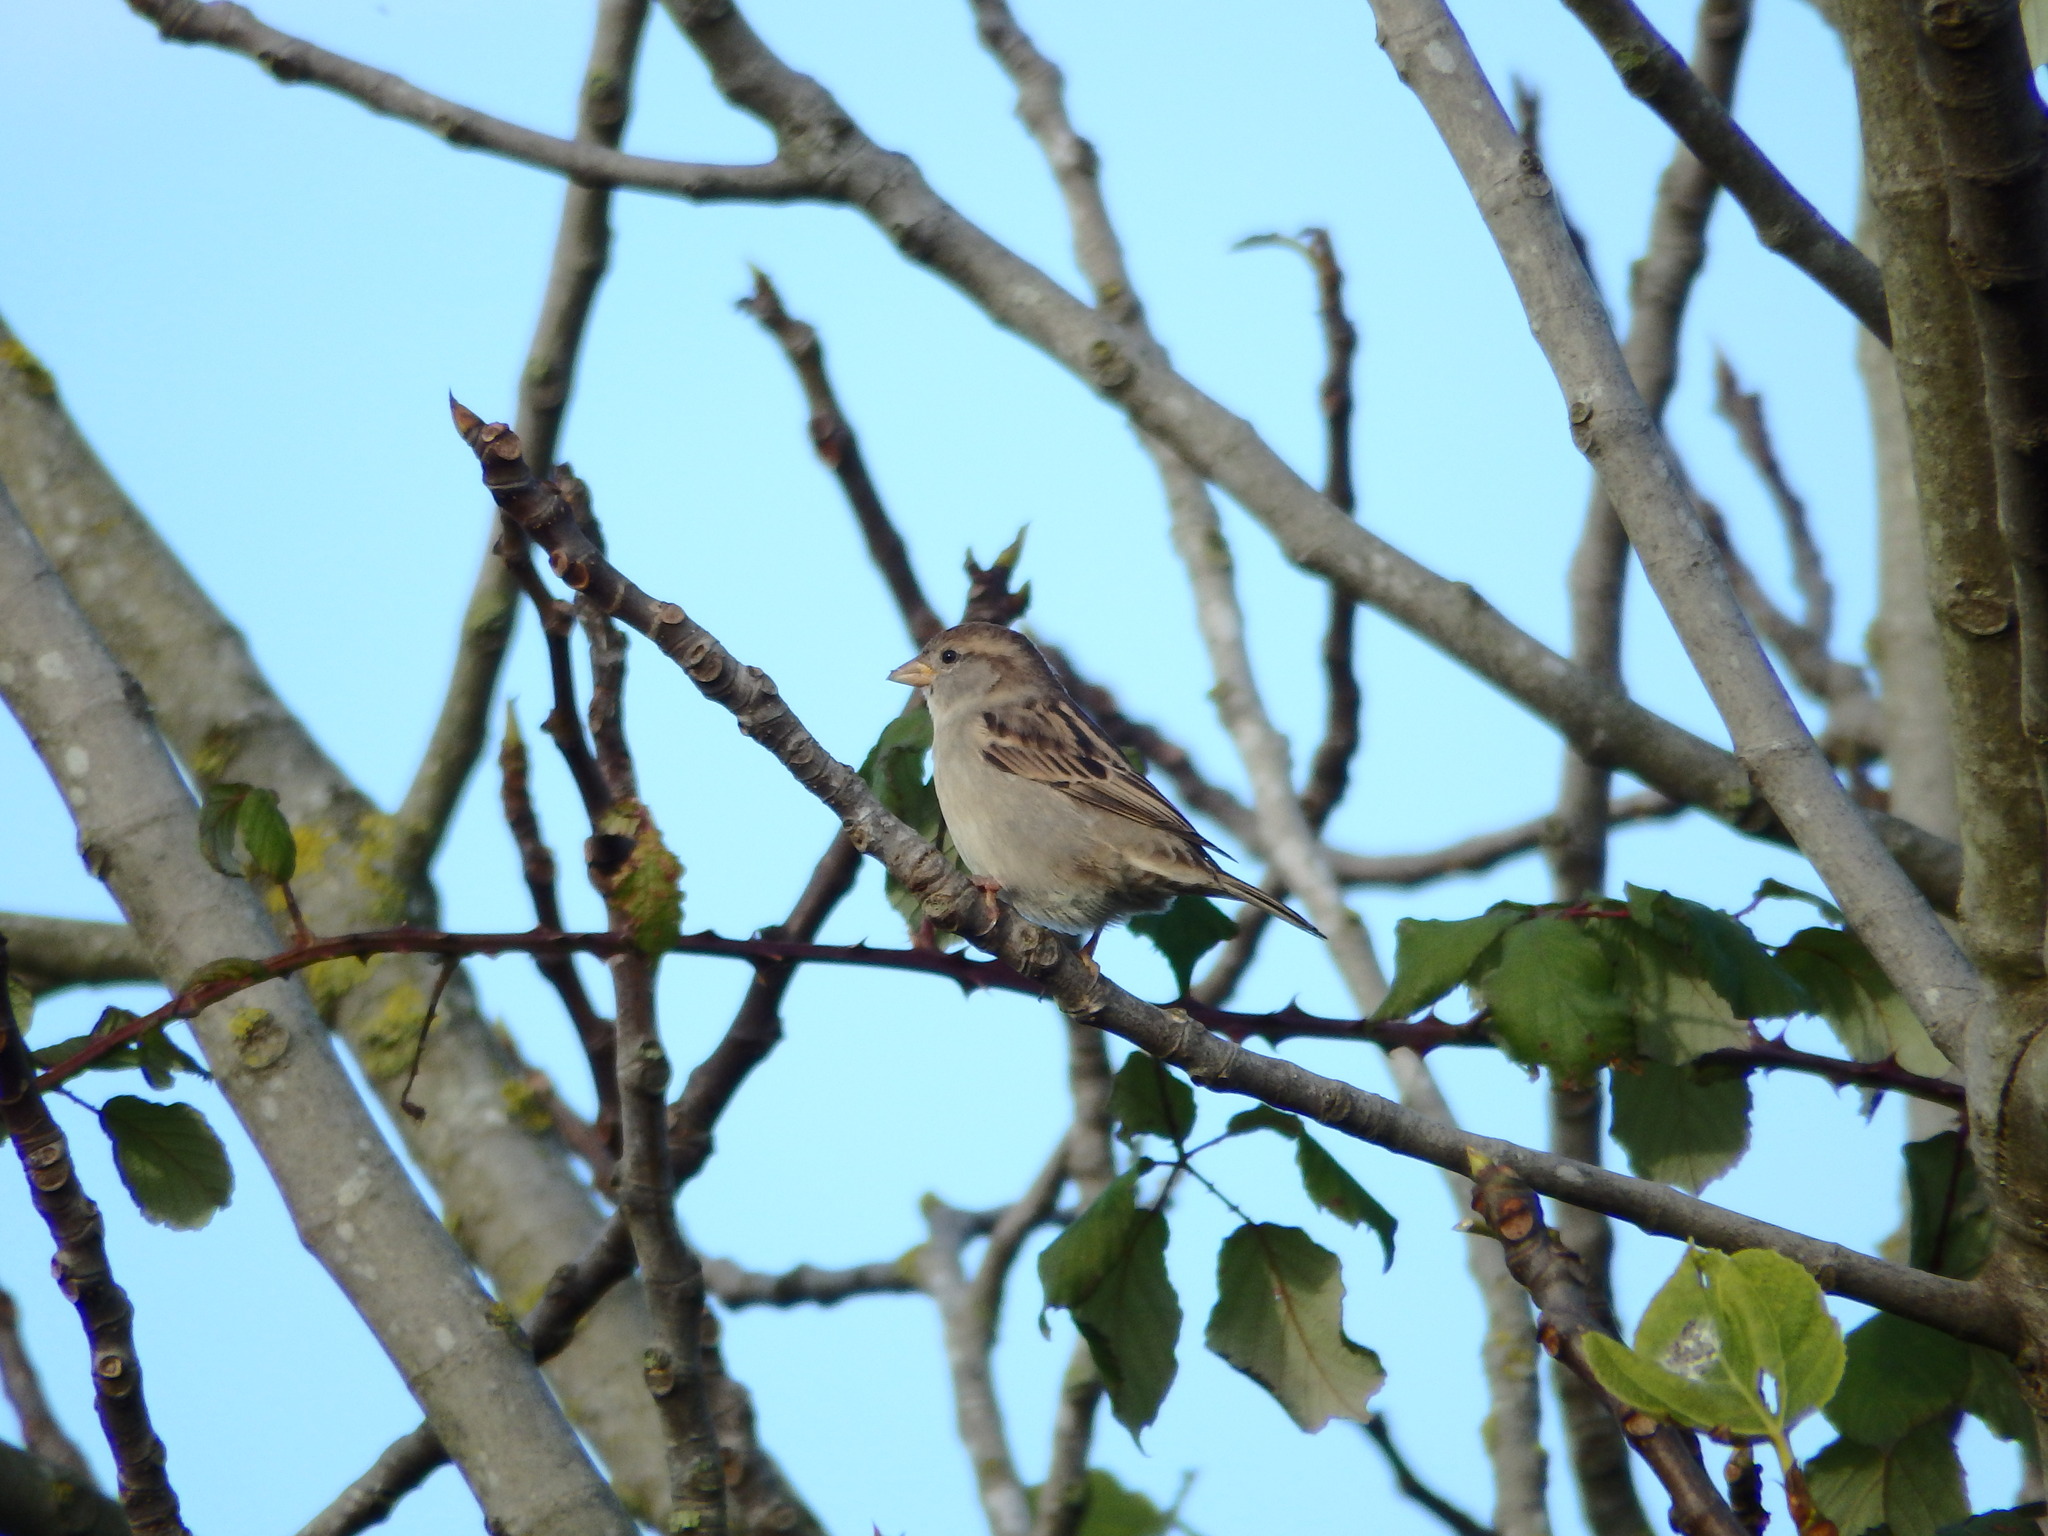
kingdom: Animalia
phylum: Chordata
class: Aves
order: Passeriformes
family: Passeridae
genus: Passer
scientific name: Passer domesticus
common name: House sparrow
